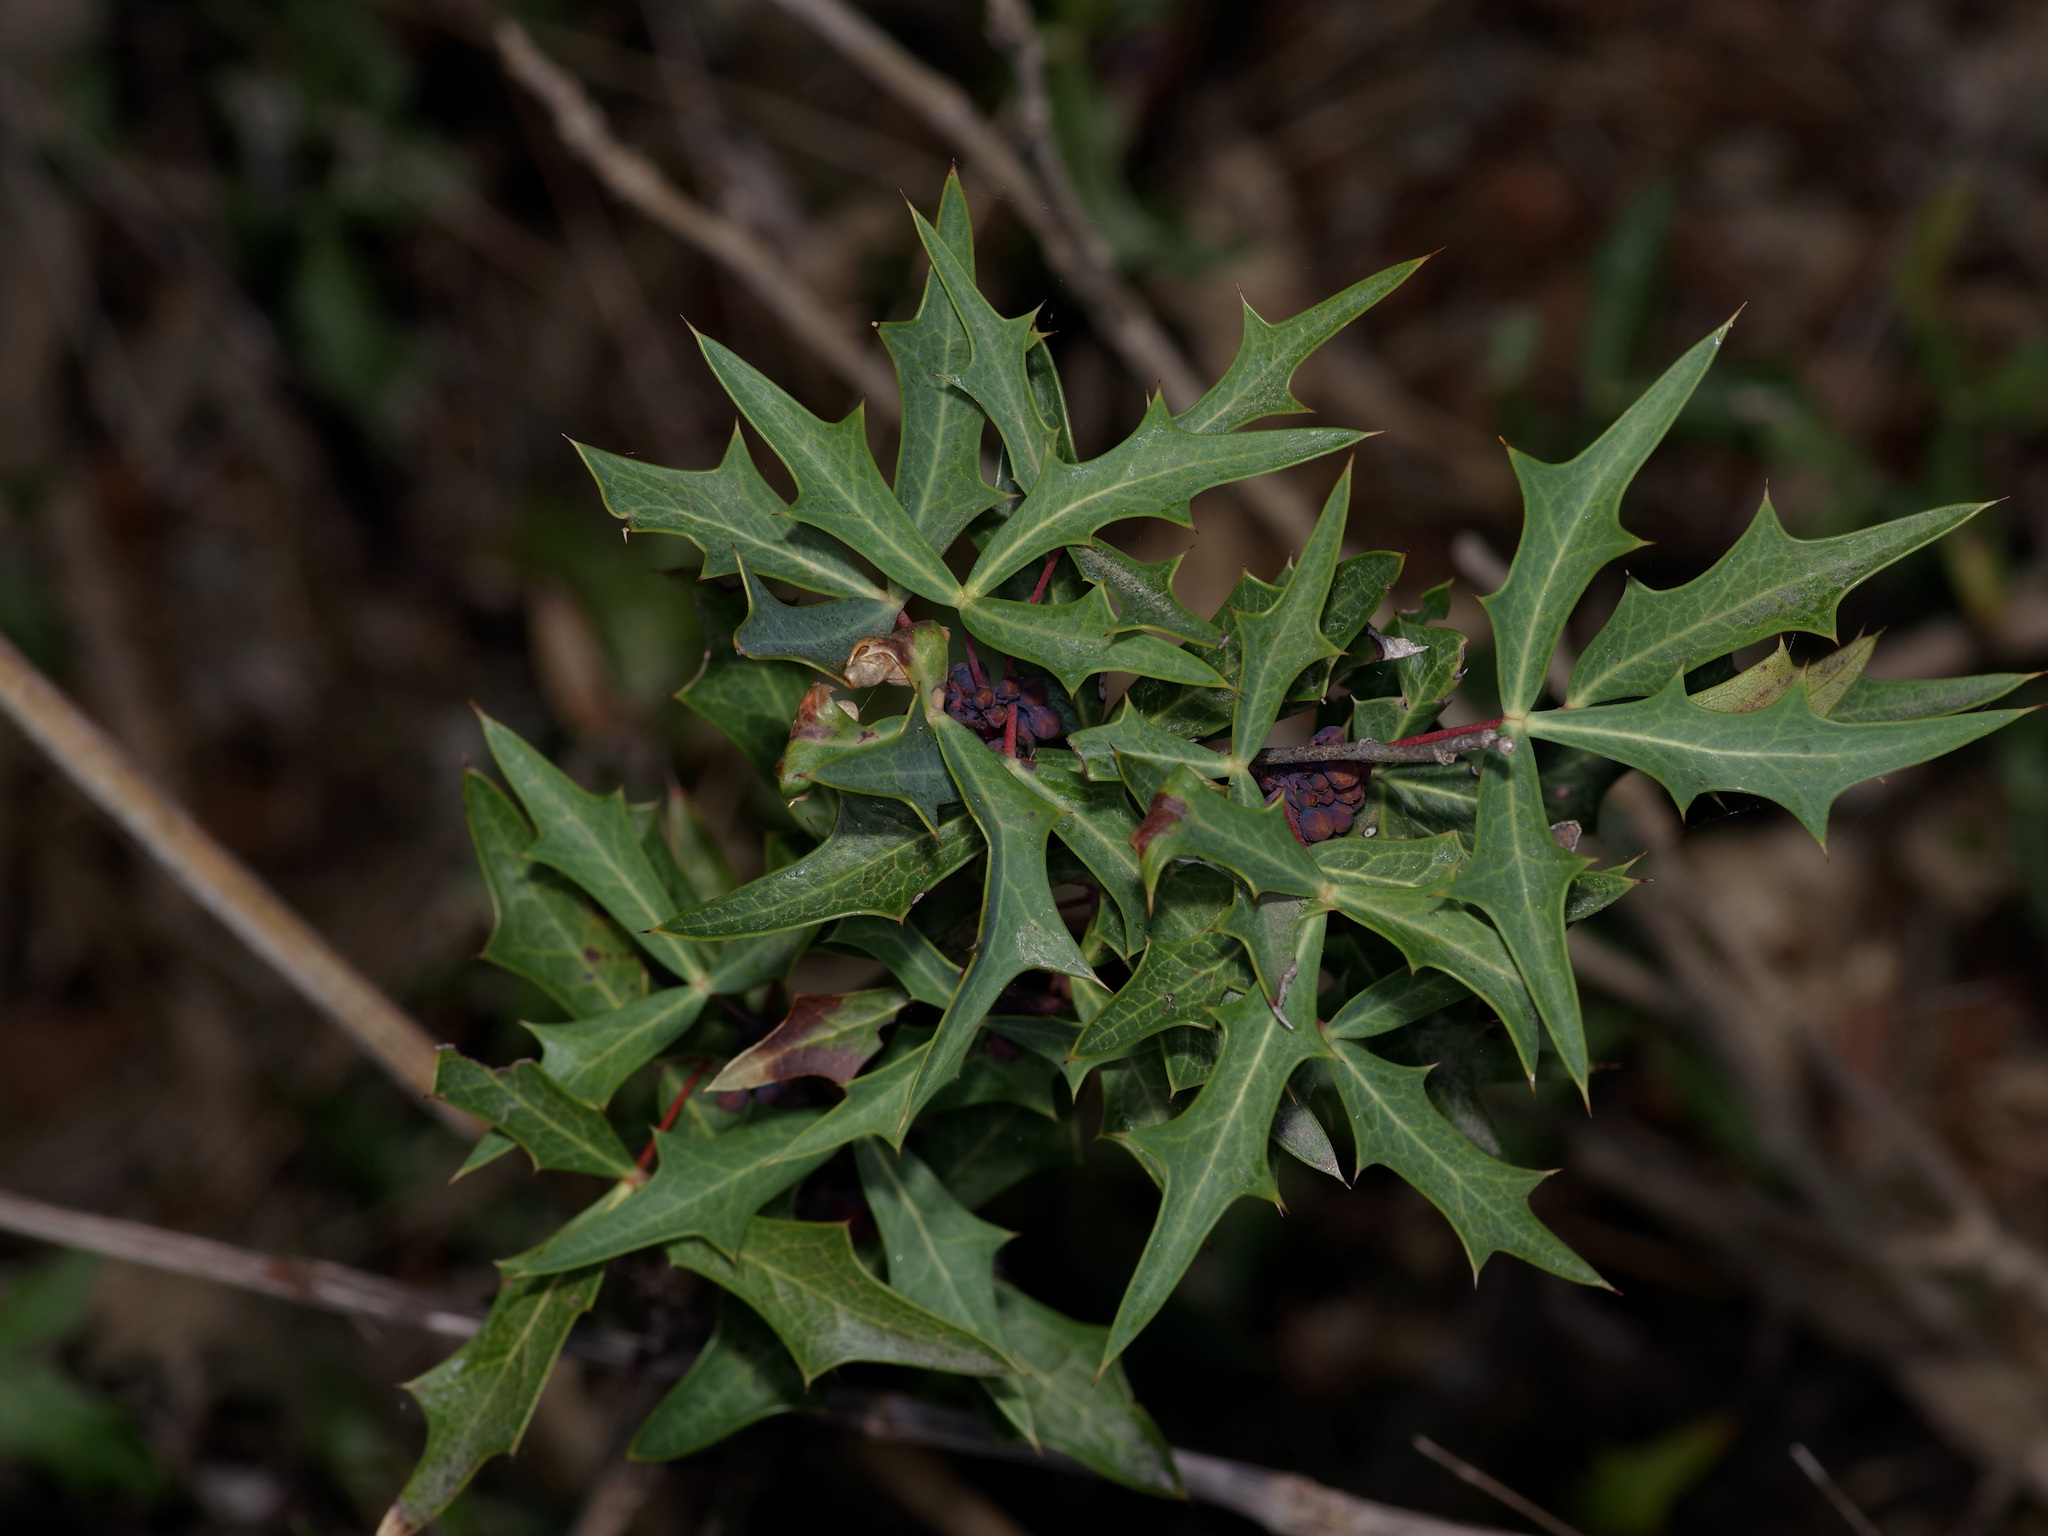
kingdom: Plantae
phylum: Tracheophyta
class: Magnoliopsida
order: Ranunculales
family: Berberidaceae
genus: Alloberberis
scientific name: Alloberberis trifoliolata
